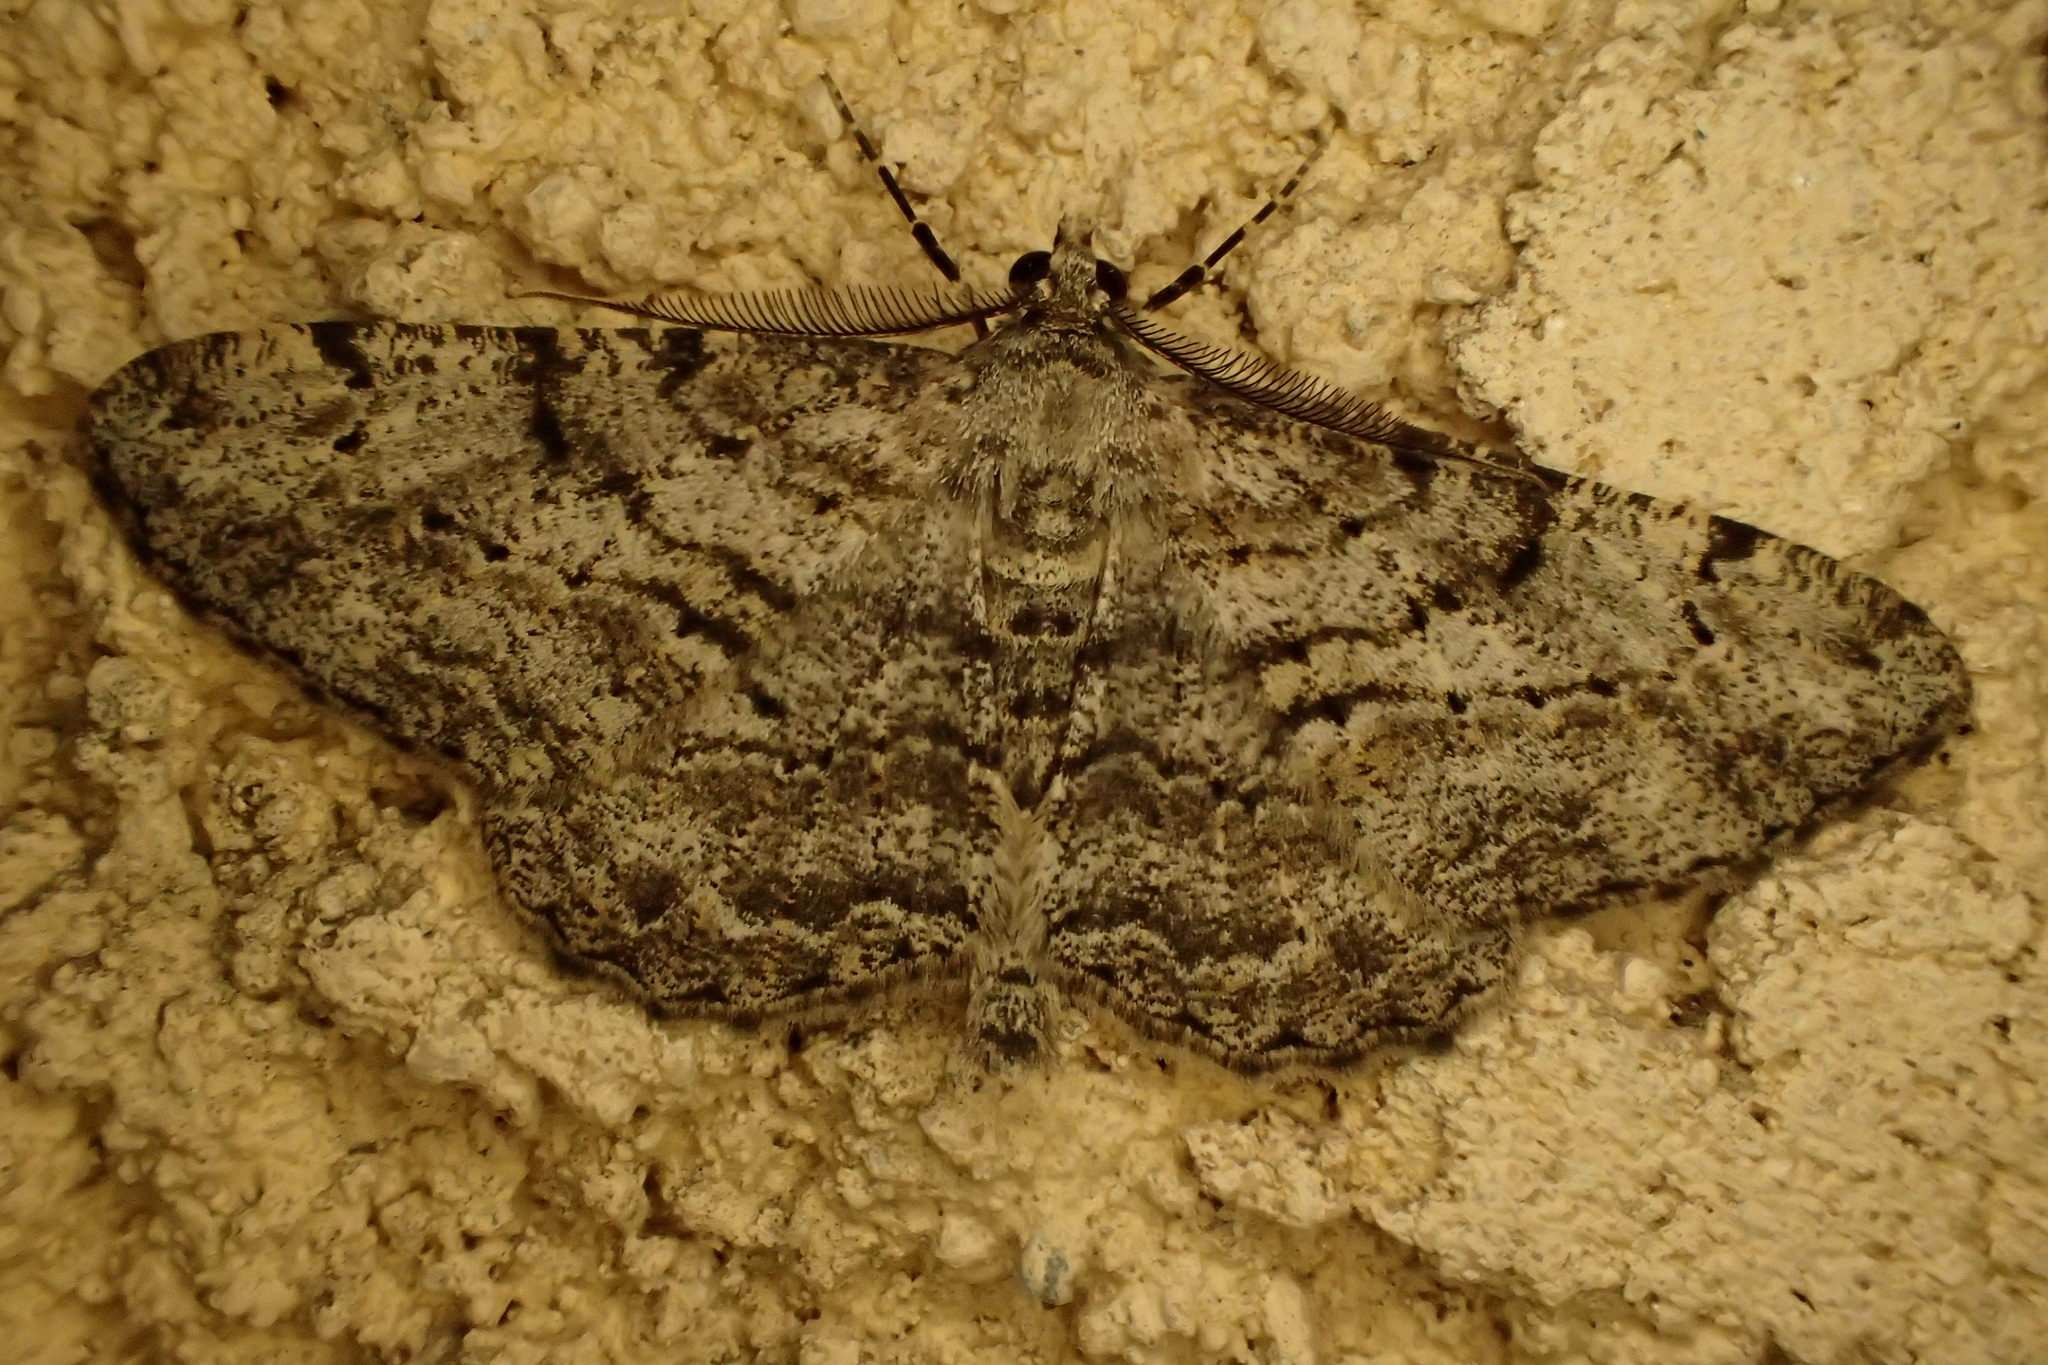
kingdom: Animalia
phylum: Arthropoda
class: Insecta
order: Lepidoptera
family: Geometridae
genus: Peribatodes
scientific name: Peribatodes rhomboidaria
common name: Willow beauty
